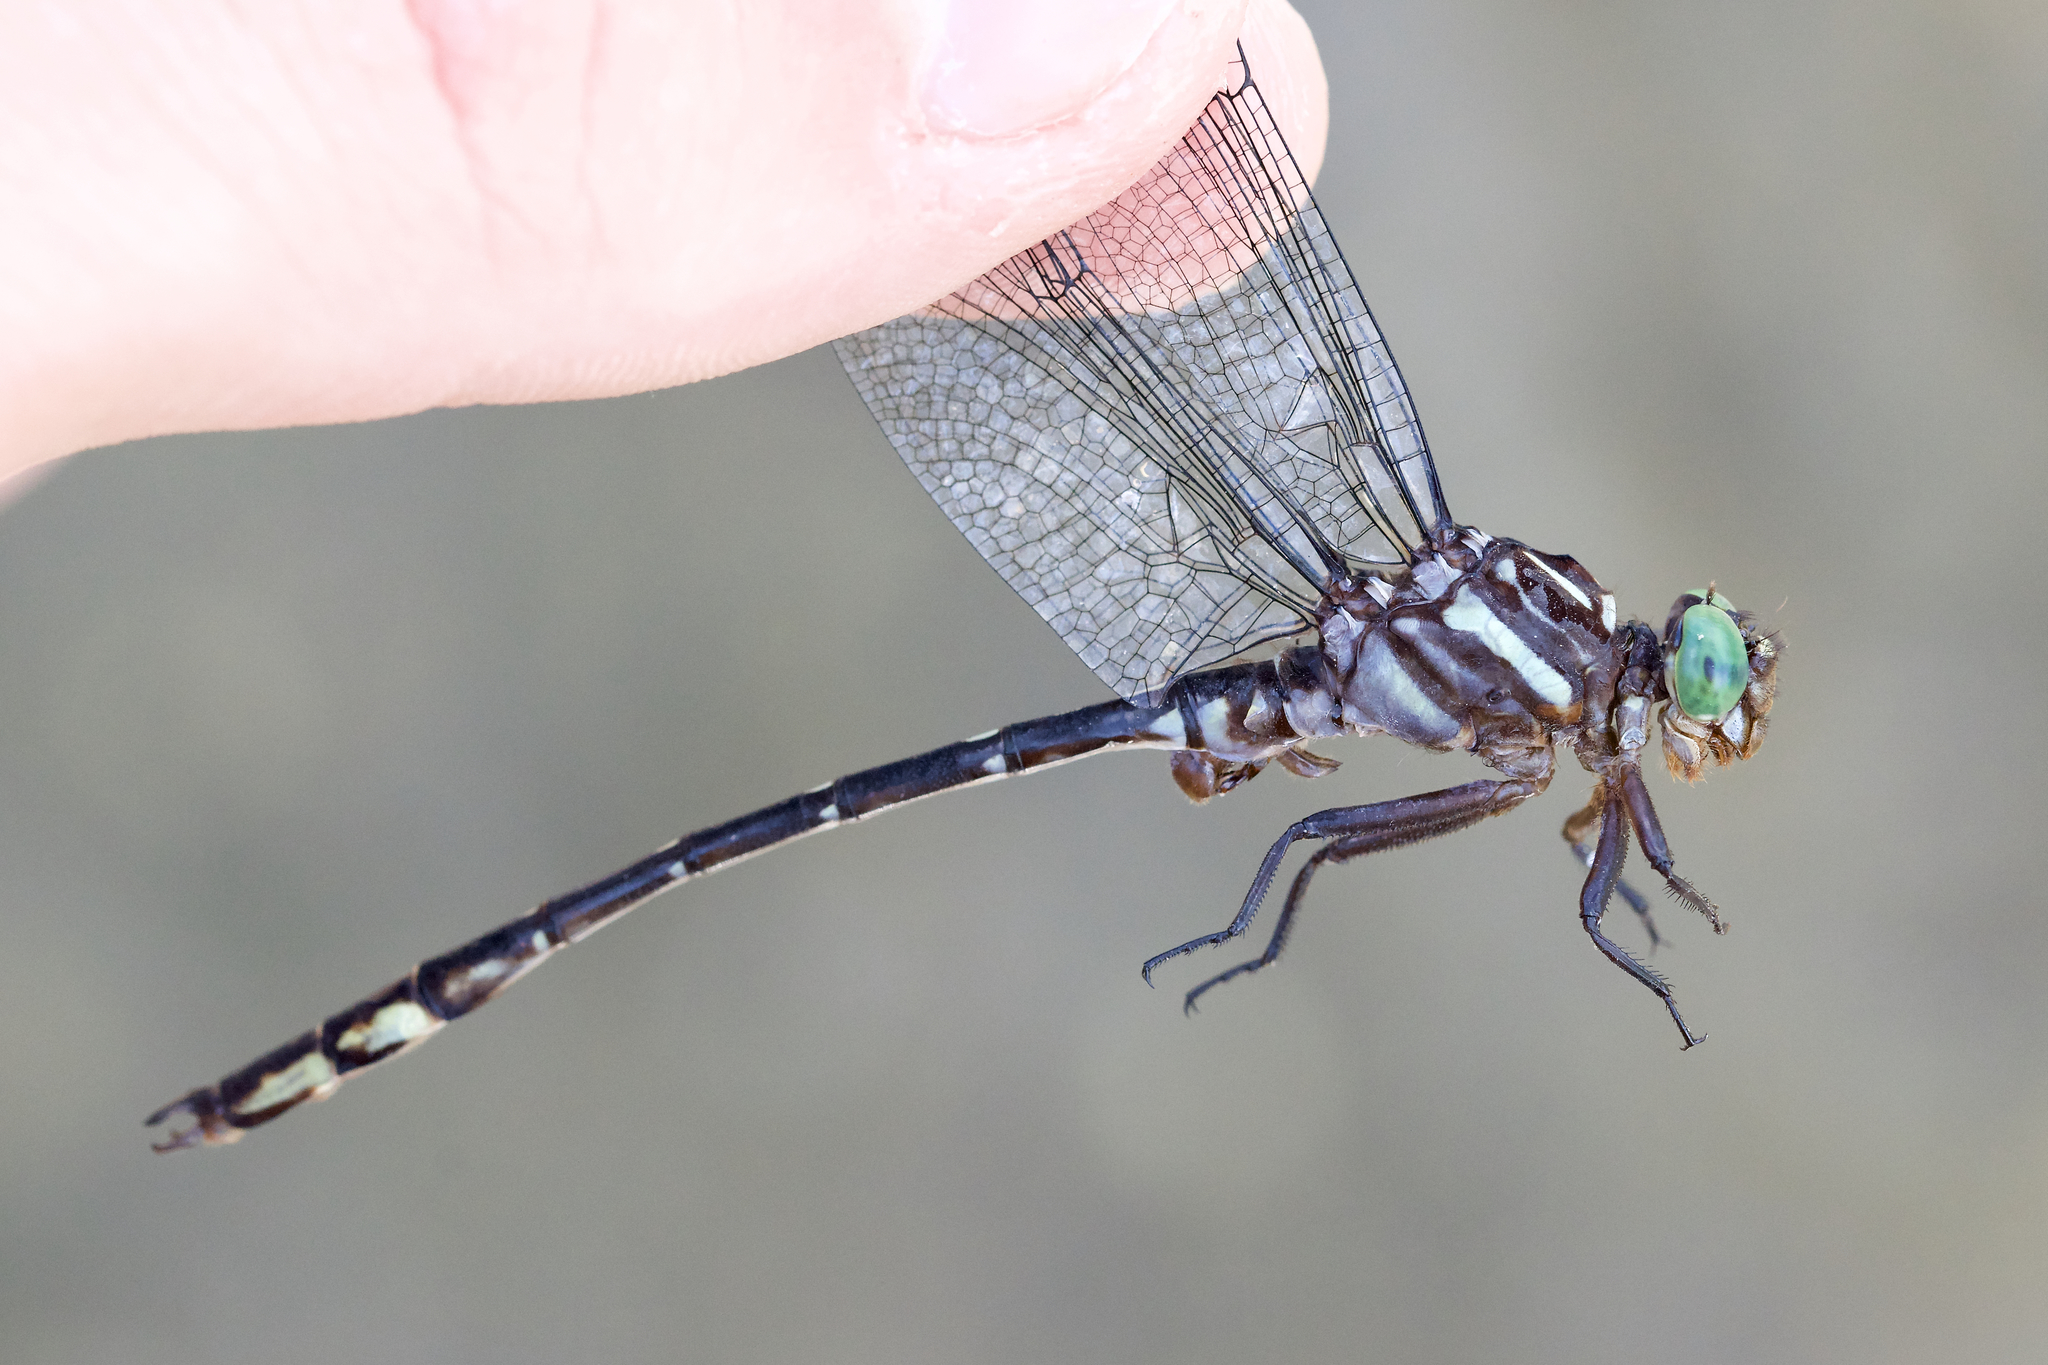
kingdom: Animalia
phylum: Arthropoda
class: Insecta
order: Odonata
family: Gomphidae
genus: Stylurus
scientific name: Stylurus spiniceps
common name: Arrow clubtail
